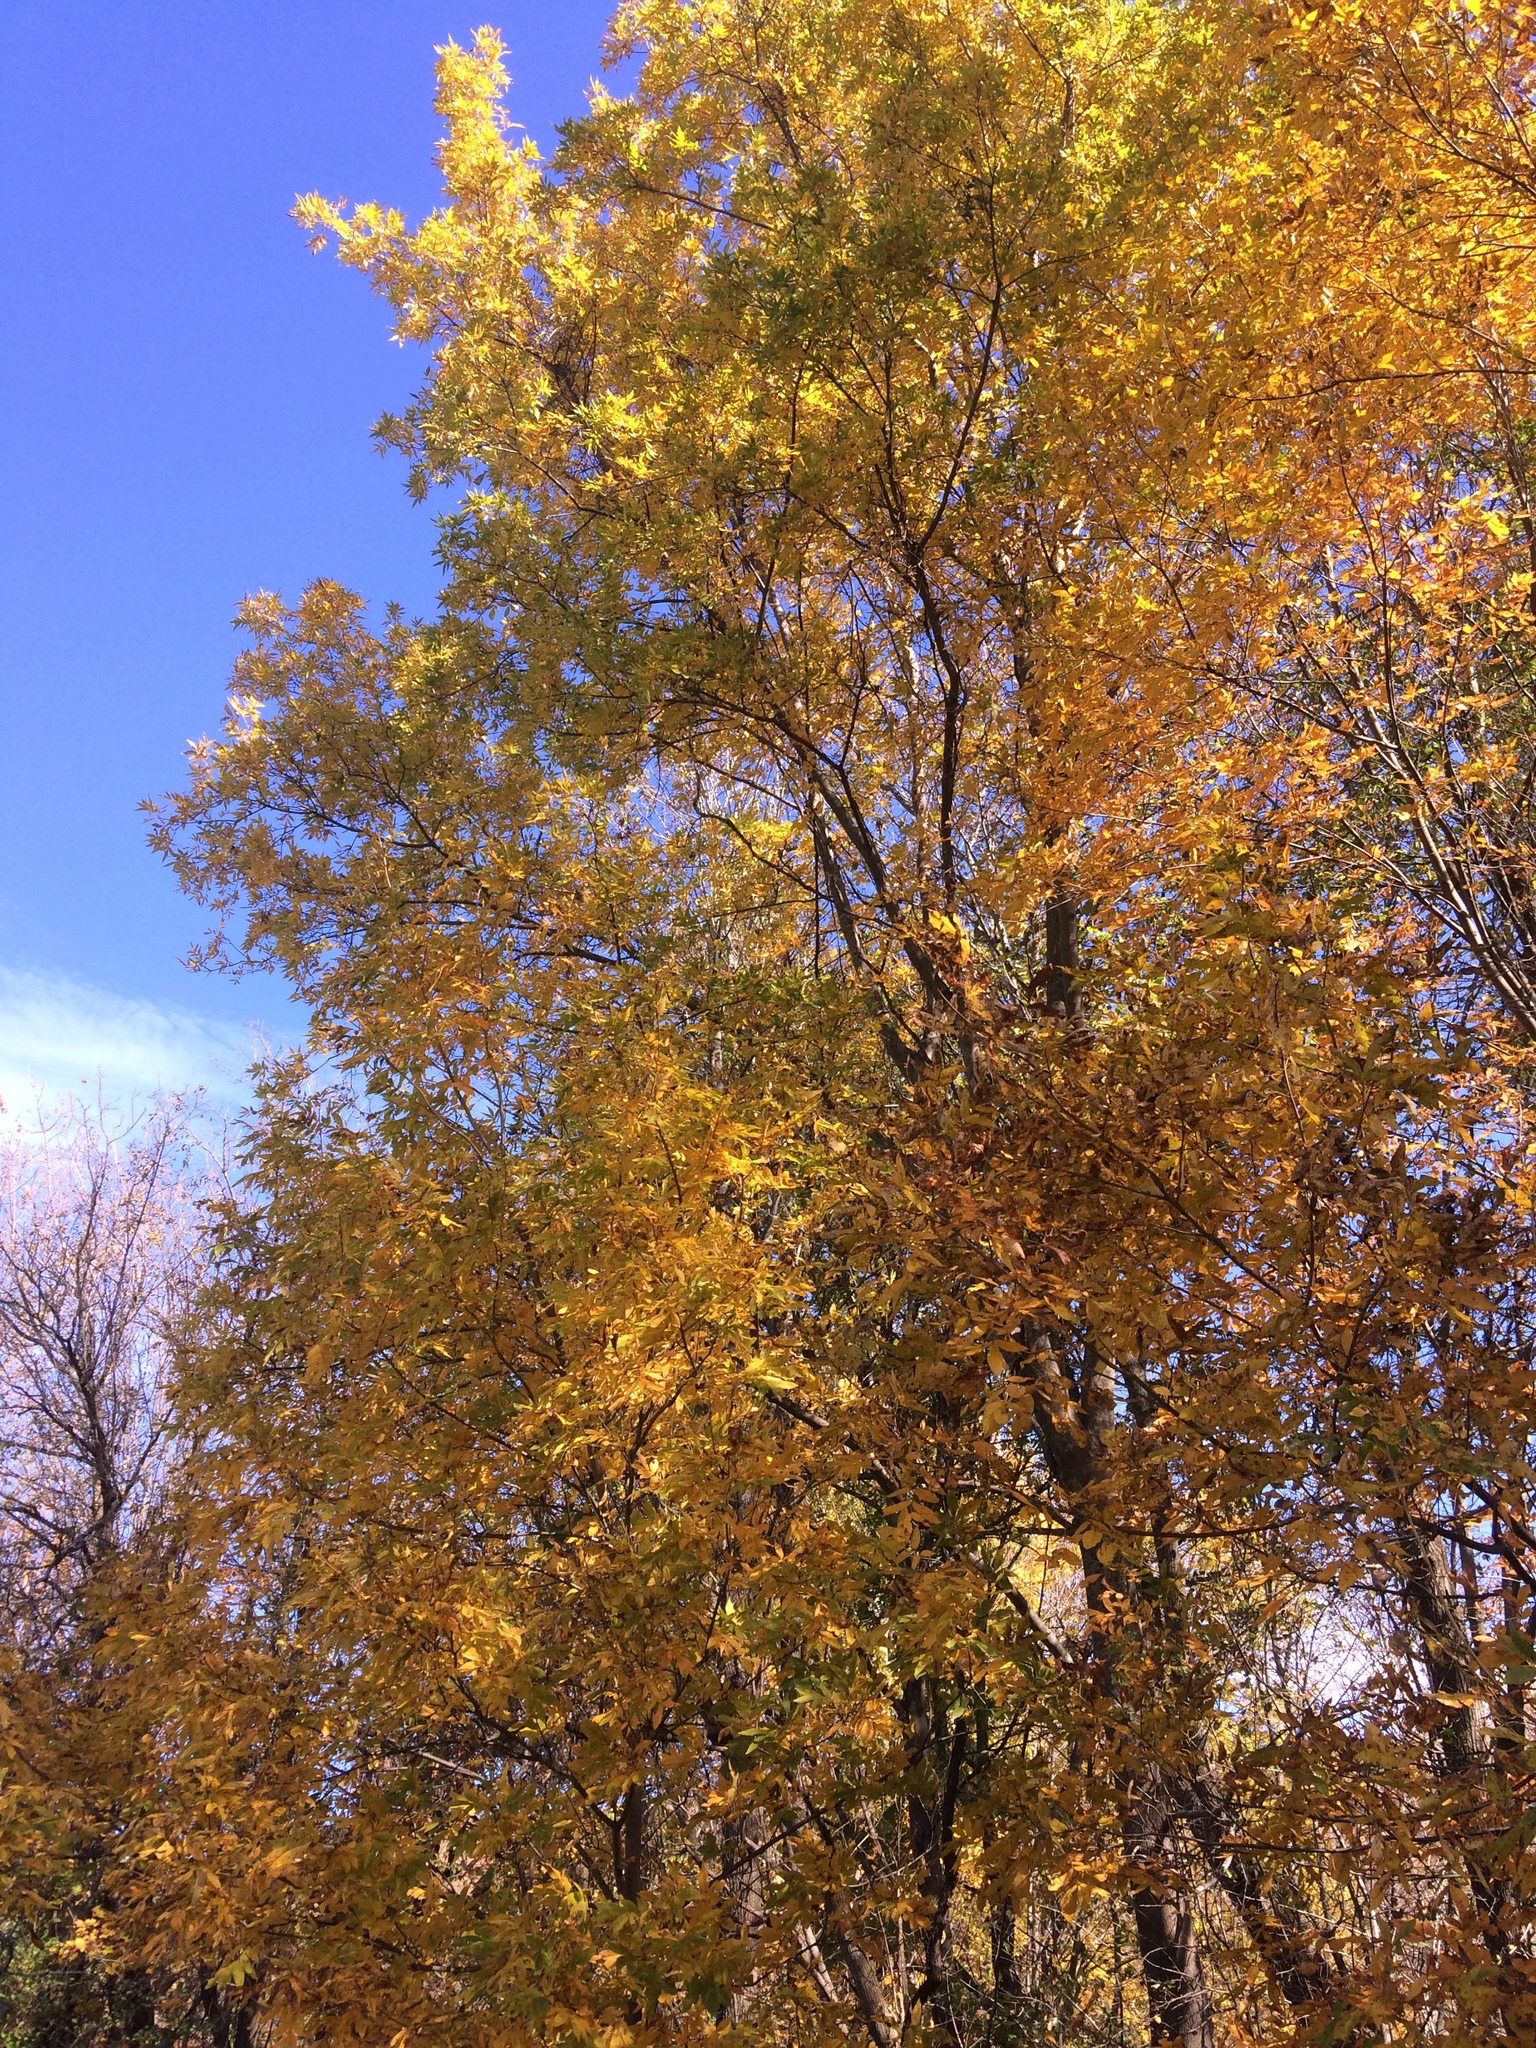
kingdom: Plantae
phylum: Tracheophyta
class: Magnoliopsida
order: Fagales
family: Juglandaceae
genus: Carya
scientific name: Carya cordiformis
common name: Bitternut hickory
